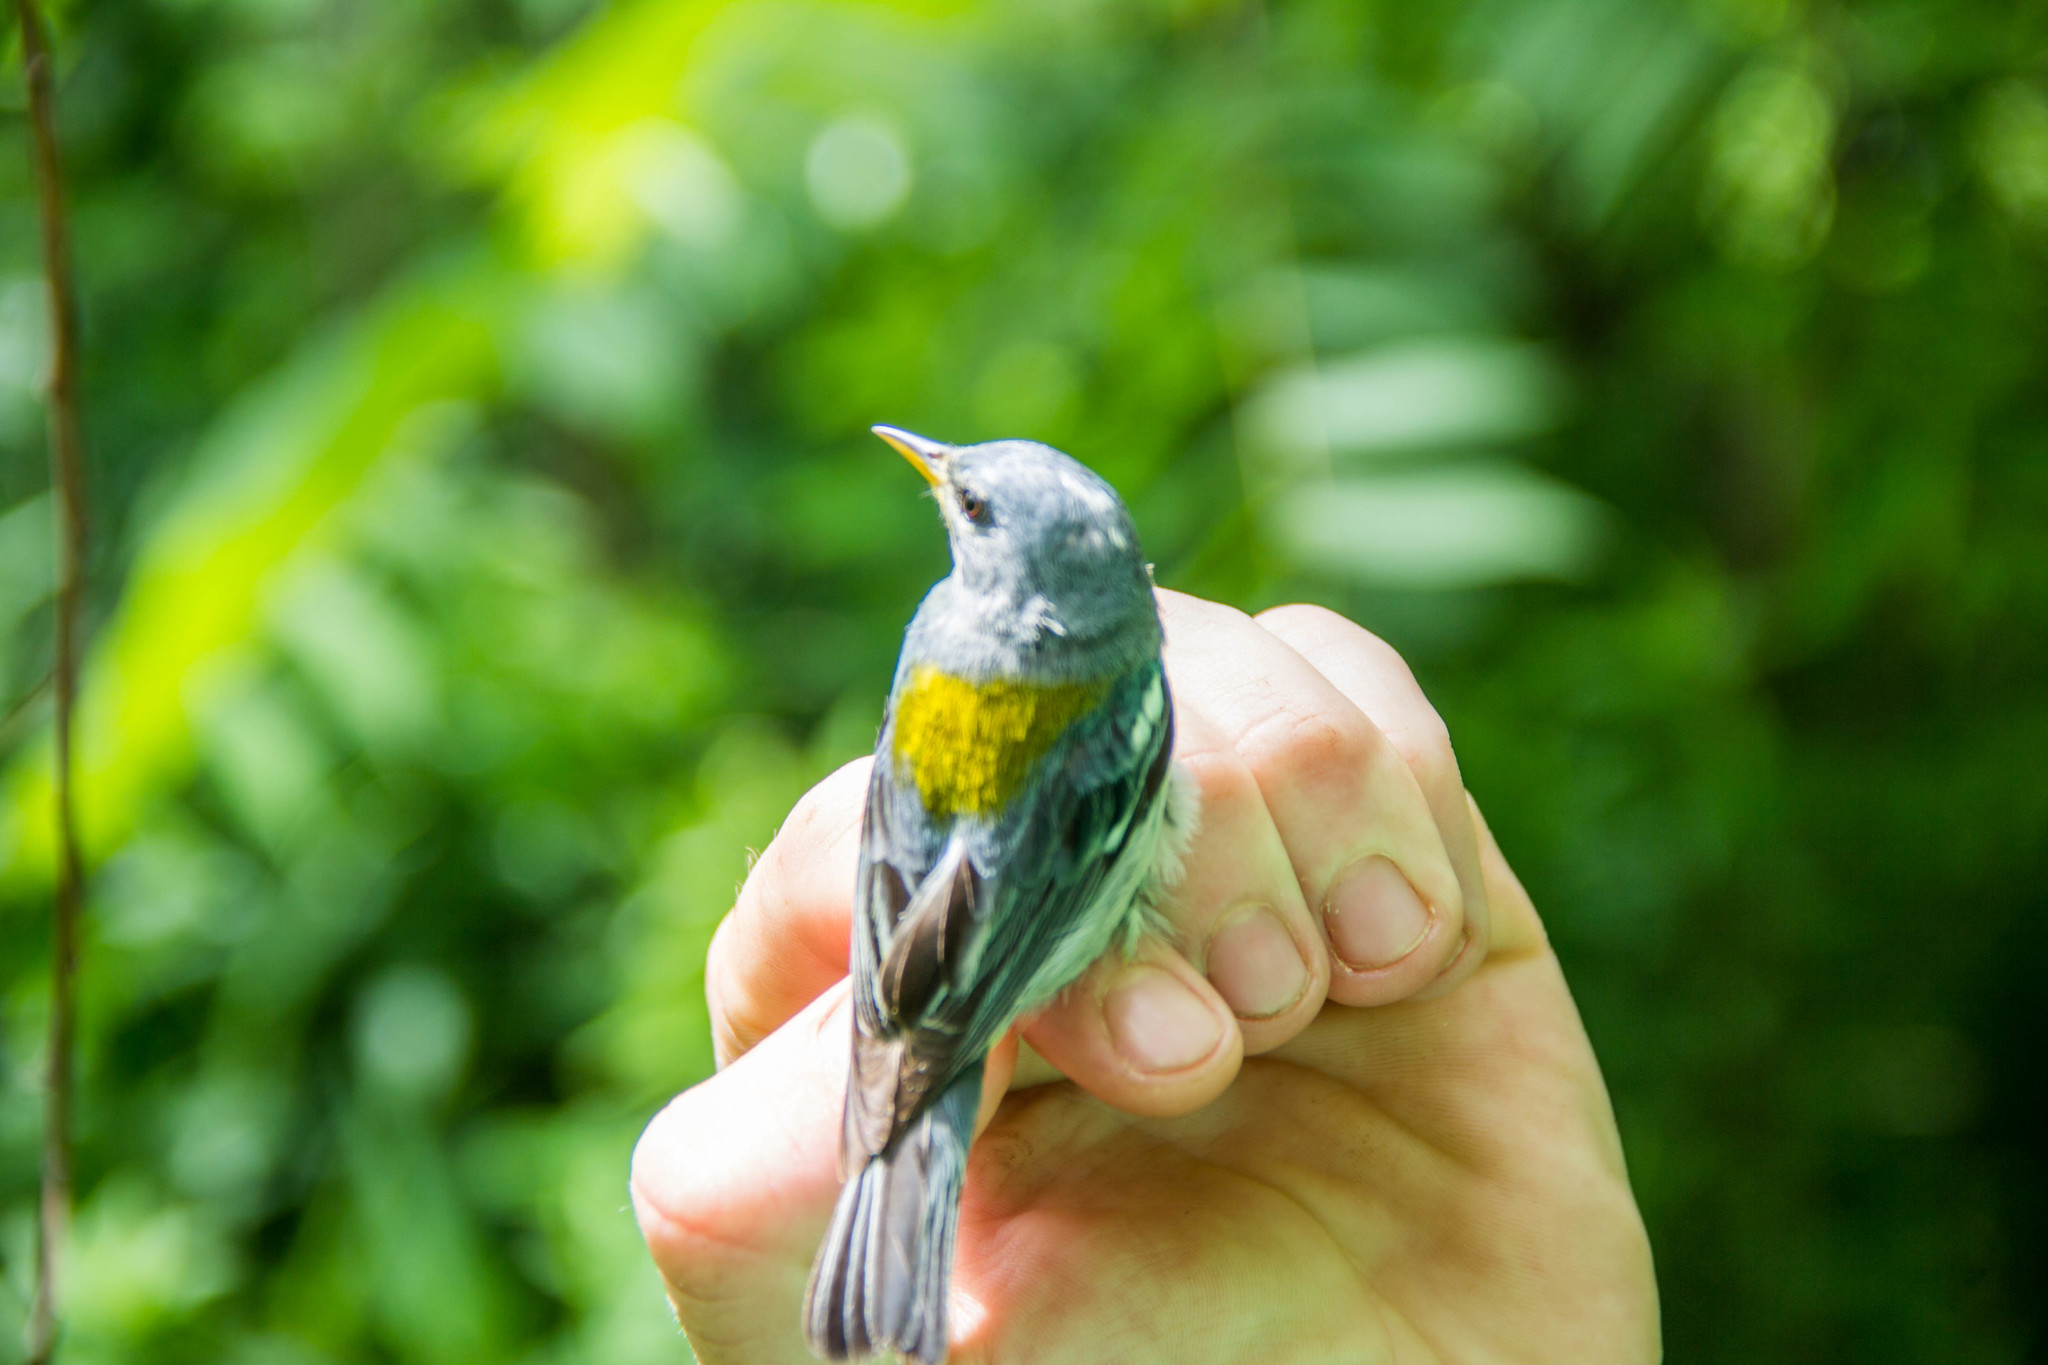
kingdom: Animalia
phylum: Chordata
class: Aves
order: Passeriformes
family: Parulidae
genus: Setophaga
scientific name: Setophaga americana
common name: Northern parula
